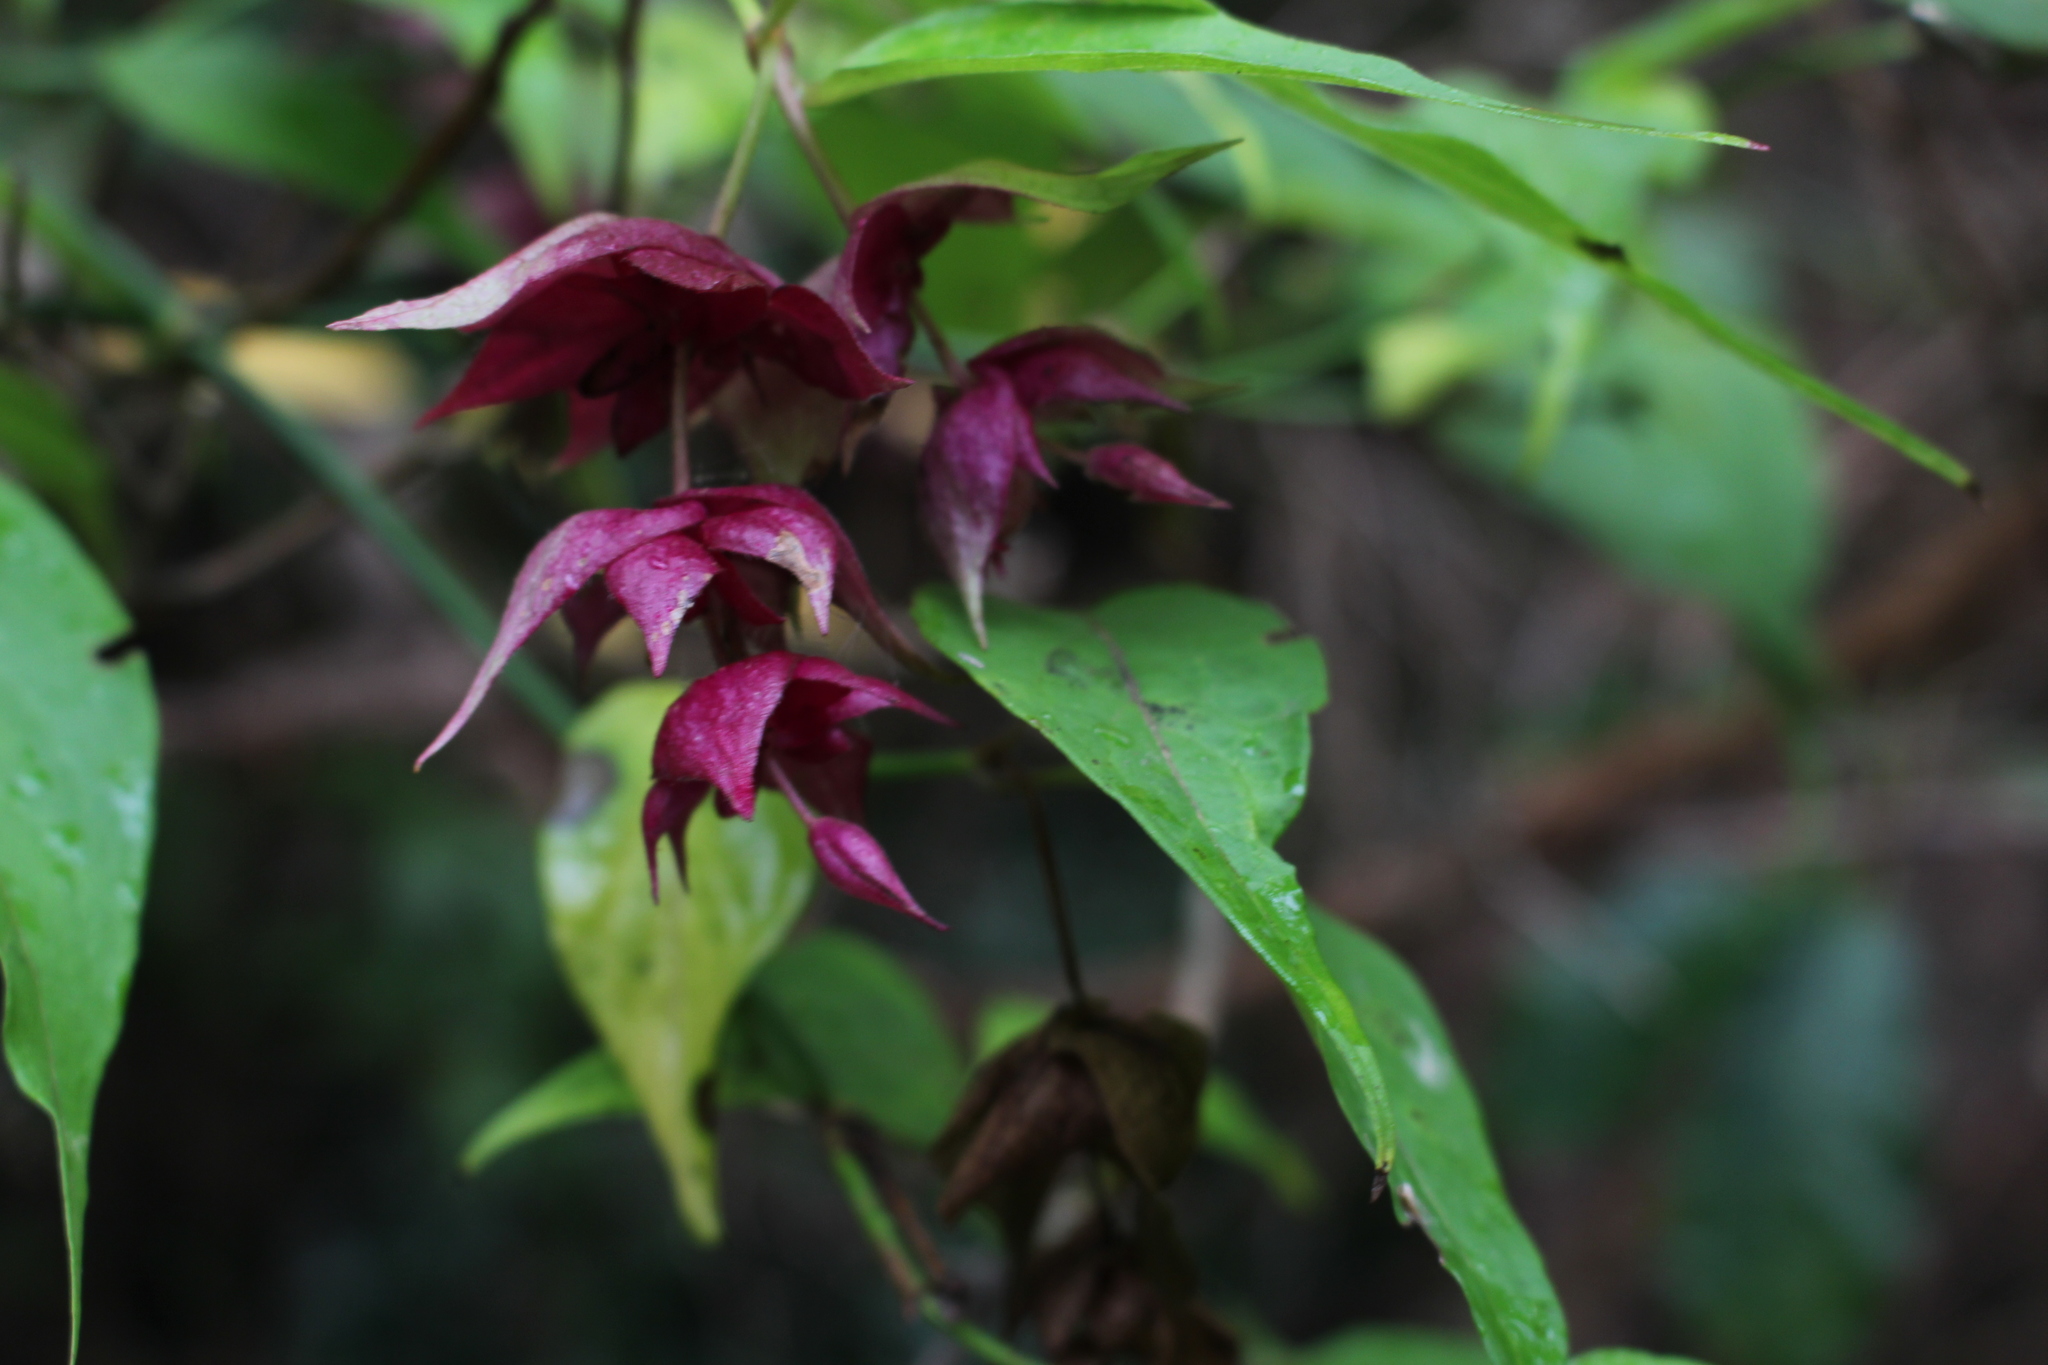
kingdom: Plantae
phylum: Tracheophyta
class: Magnoliopsida
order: Dipsacales
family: Caprifoliaceae
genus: Leycesteria
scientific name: Leycesteria formosa
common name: Himalayan honeysuckle
